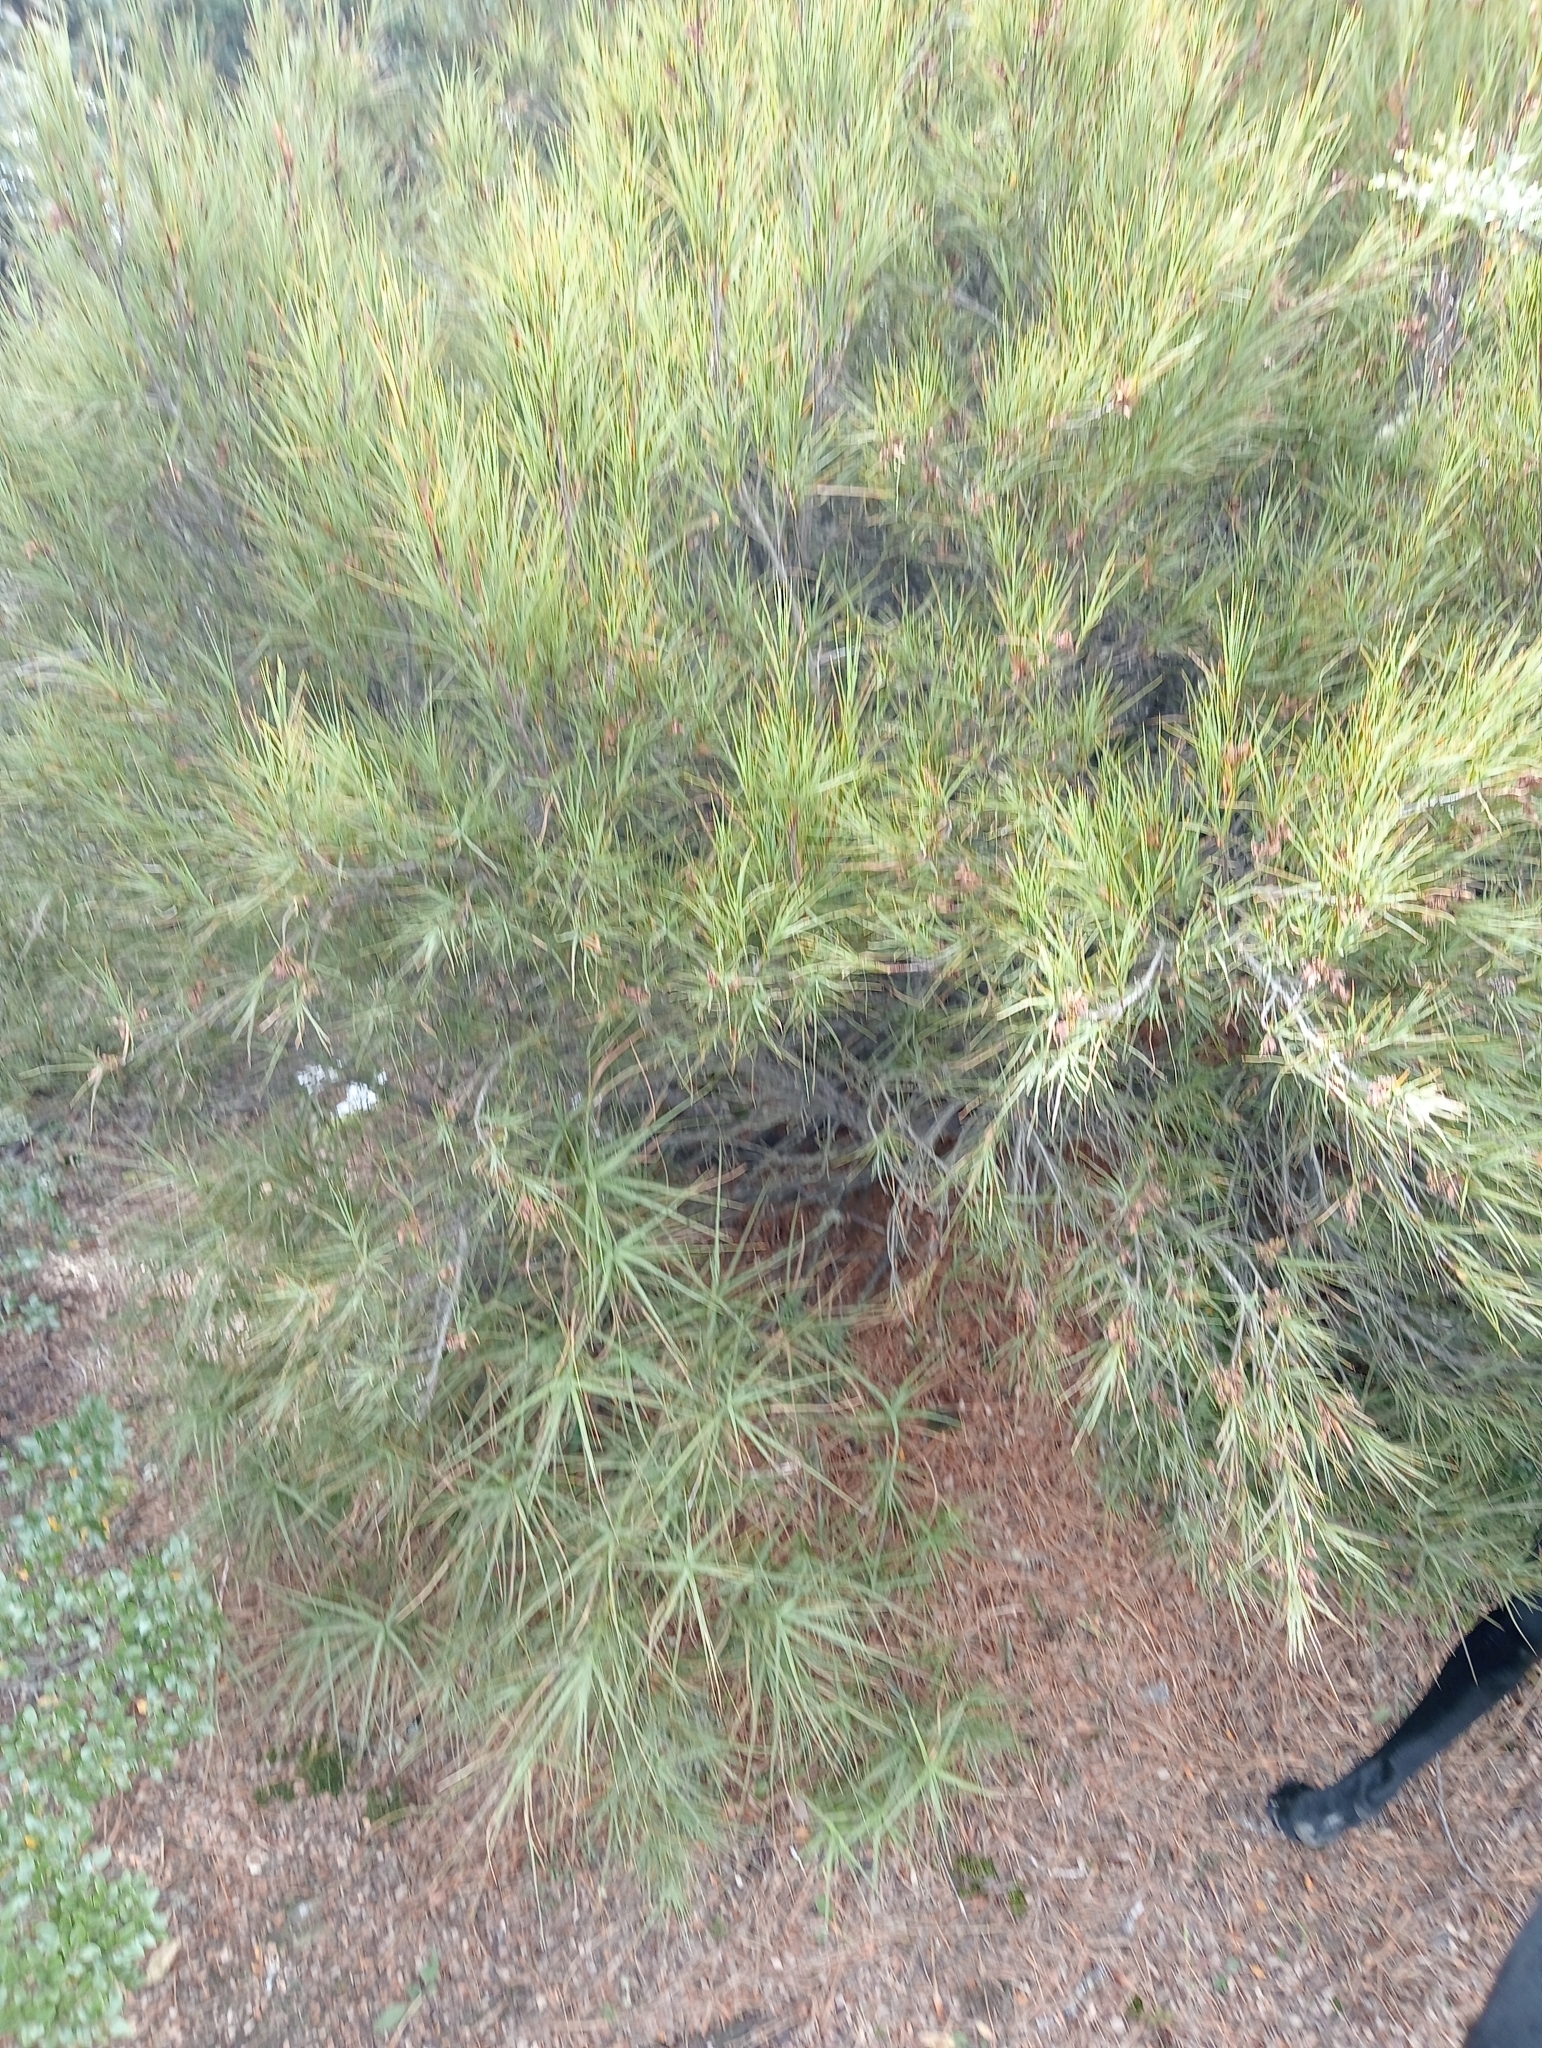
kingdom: Plantae
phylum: Tracheophyta
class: Magnoliopsida
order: Ericales
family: Ericaceae
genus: Dracophyllum
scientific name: Dracophyllum longifolium
